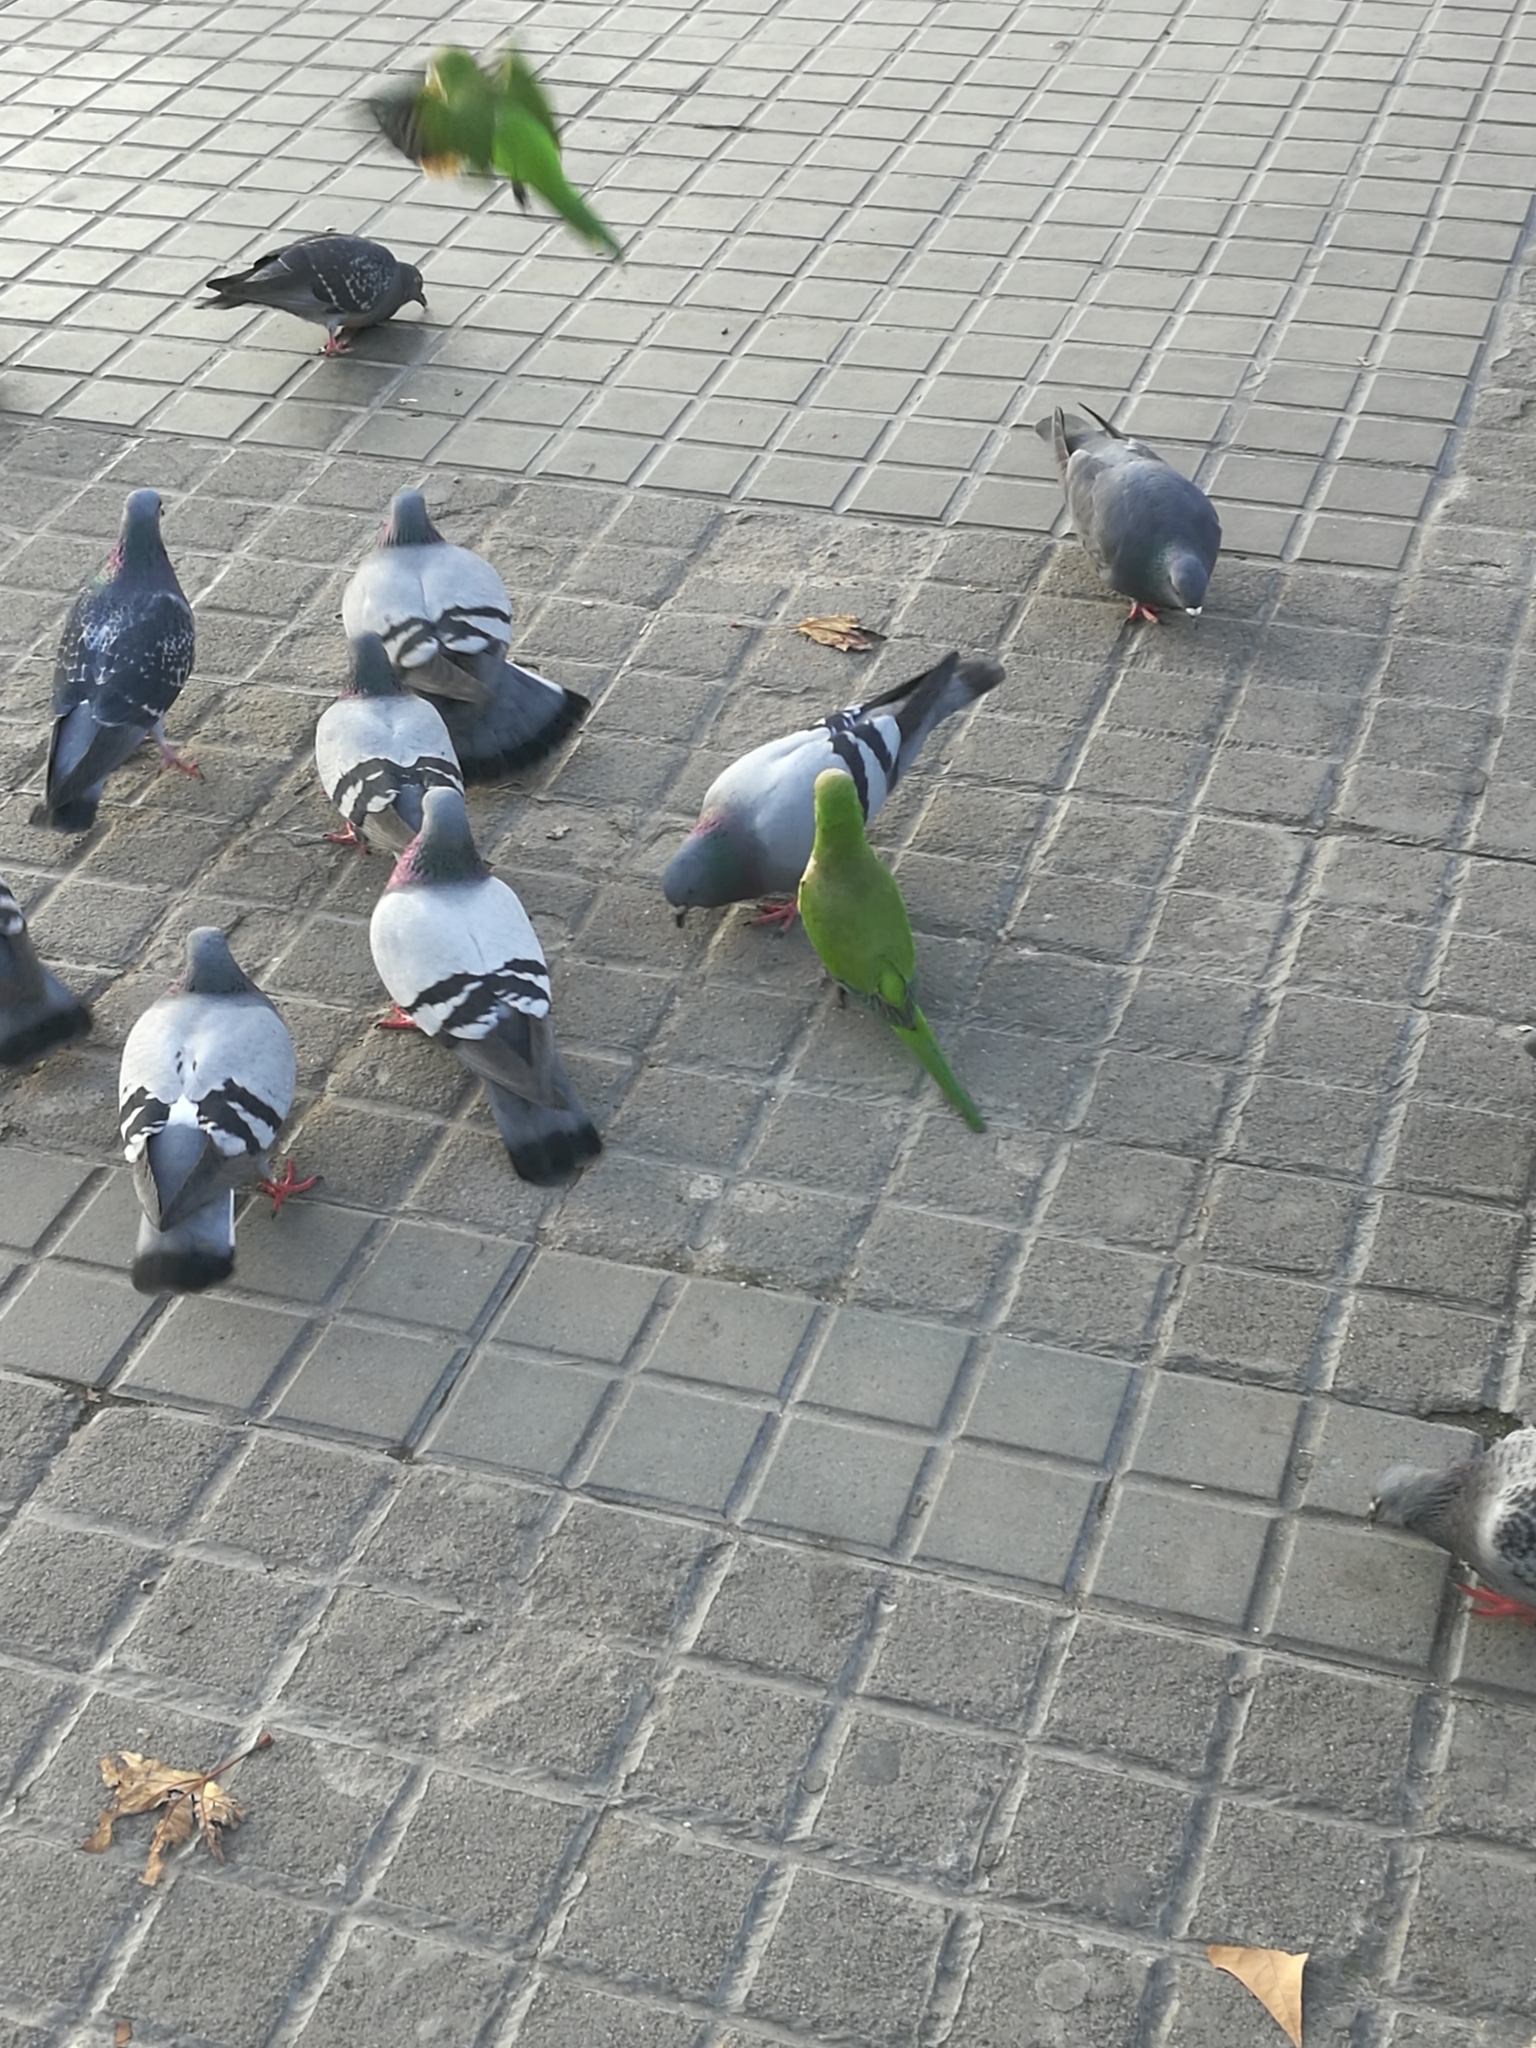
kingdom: Animalia
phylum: Chordata
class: Aves
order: Psittaciformes
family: Psittacidae
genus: Myiopsitta
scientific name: Myiopsitta monachus
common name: Monk parakeet
